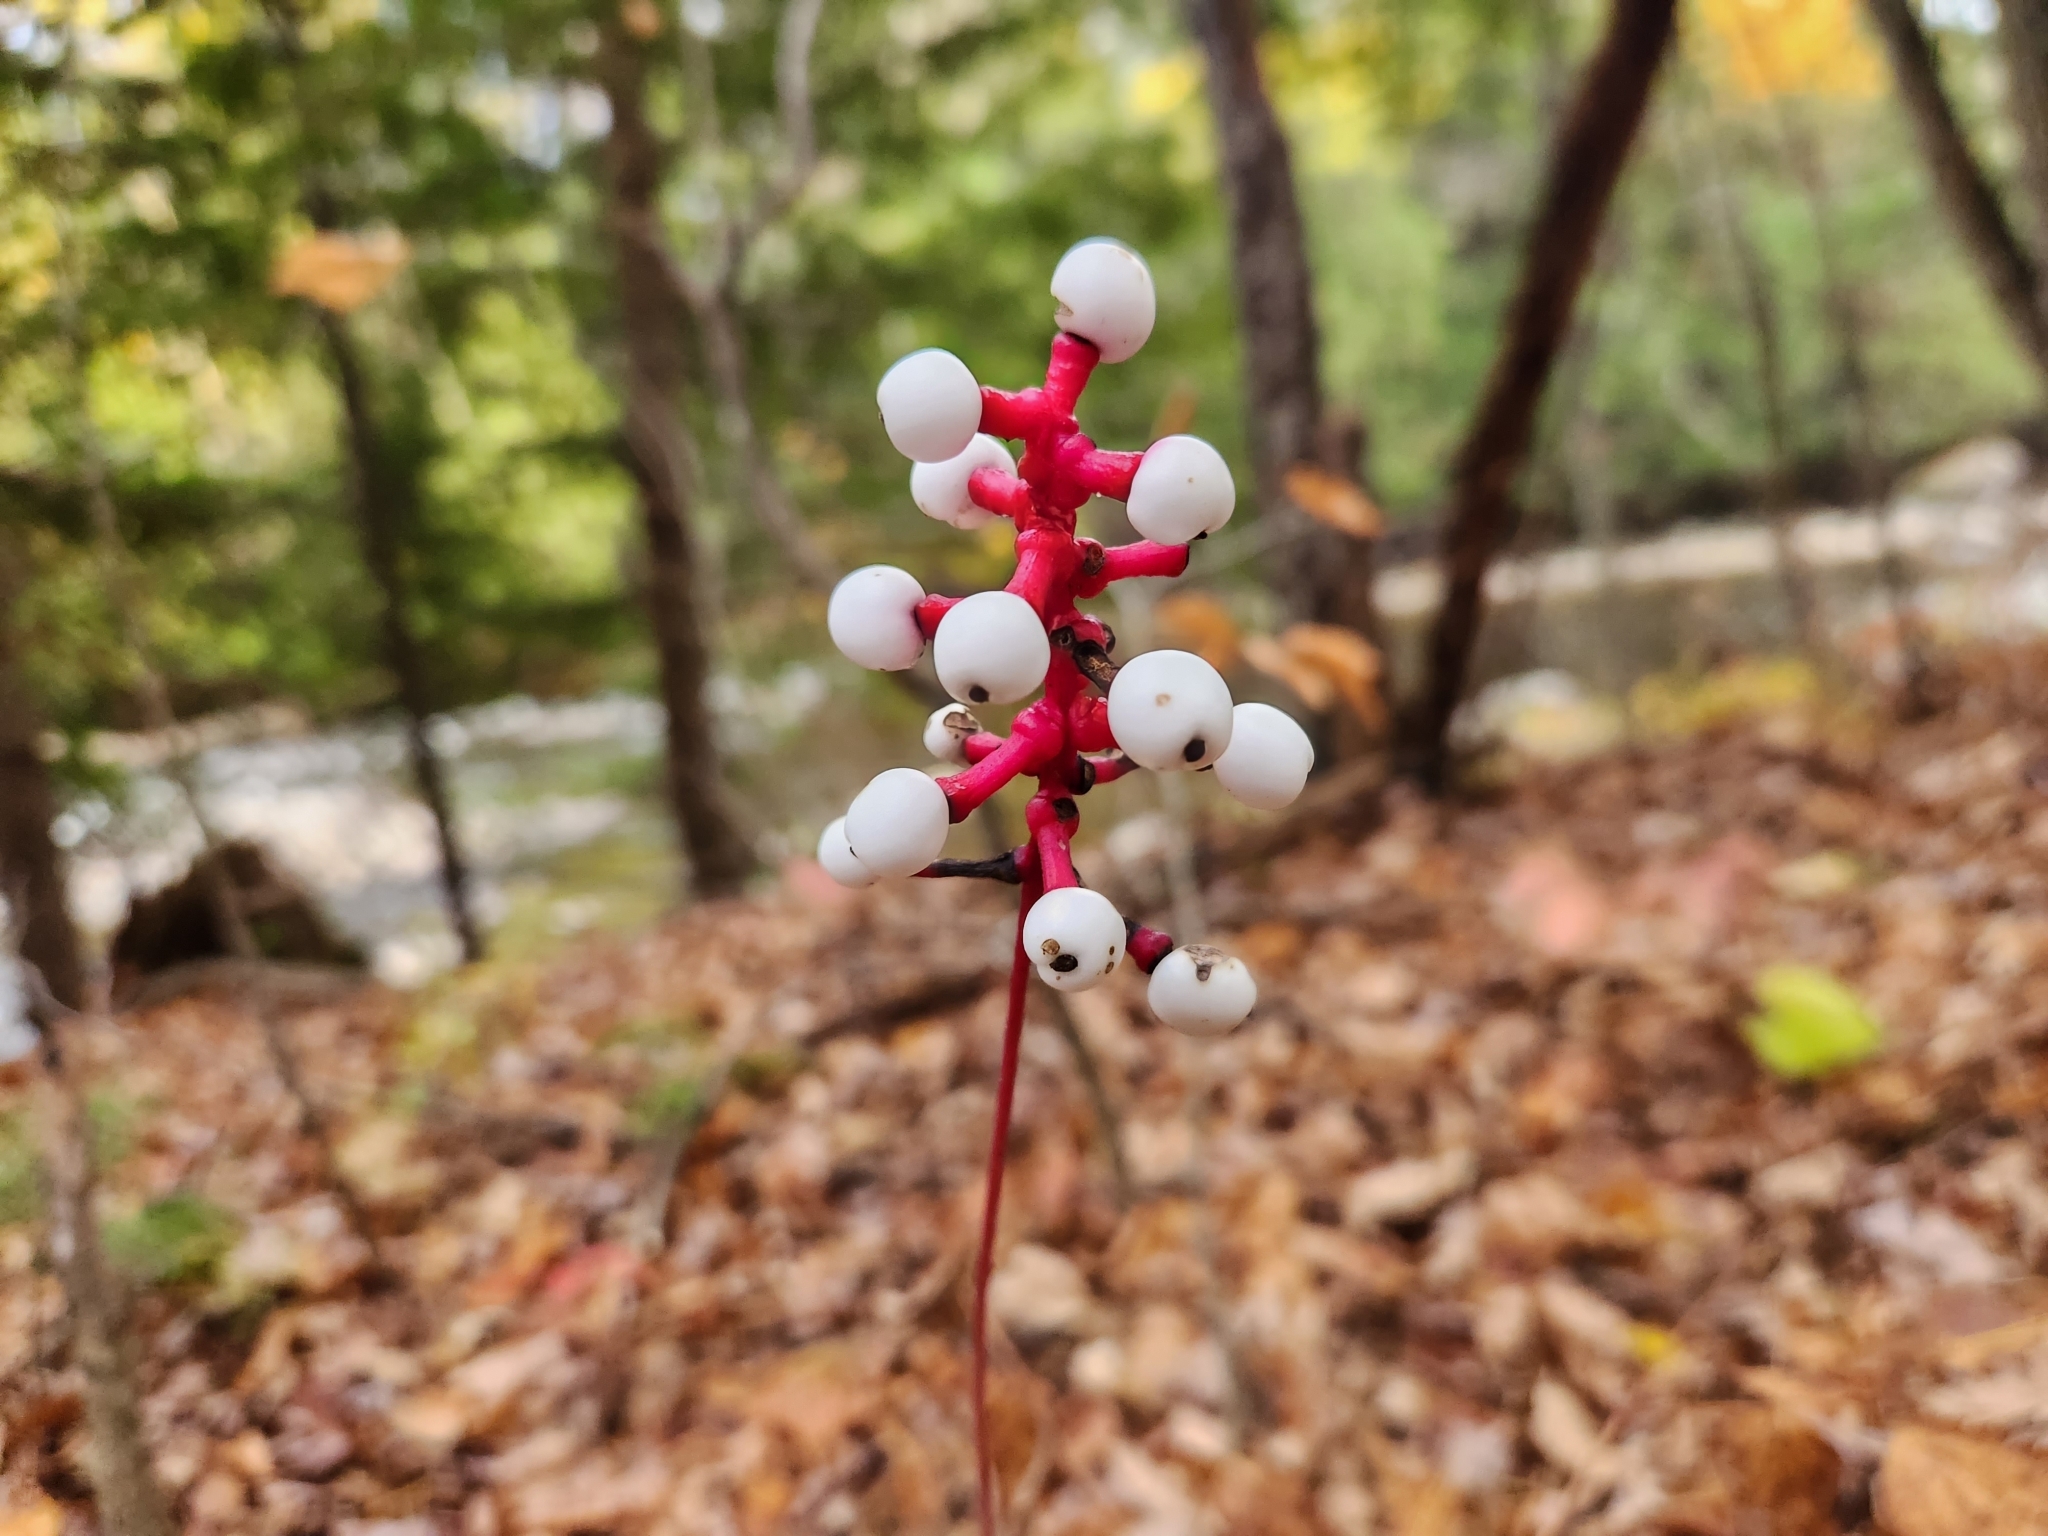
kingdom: Plantae
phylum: Tracheophyta
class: Magnoliopsida
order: Ranunculales
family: Ranunculaceae
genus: Actaea
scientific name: Actaea pachypoda
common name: Doll's-eyes
